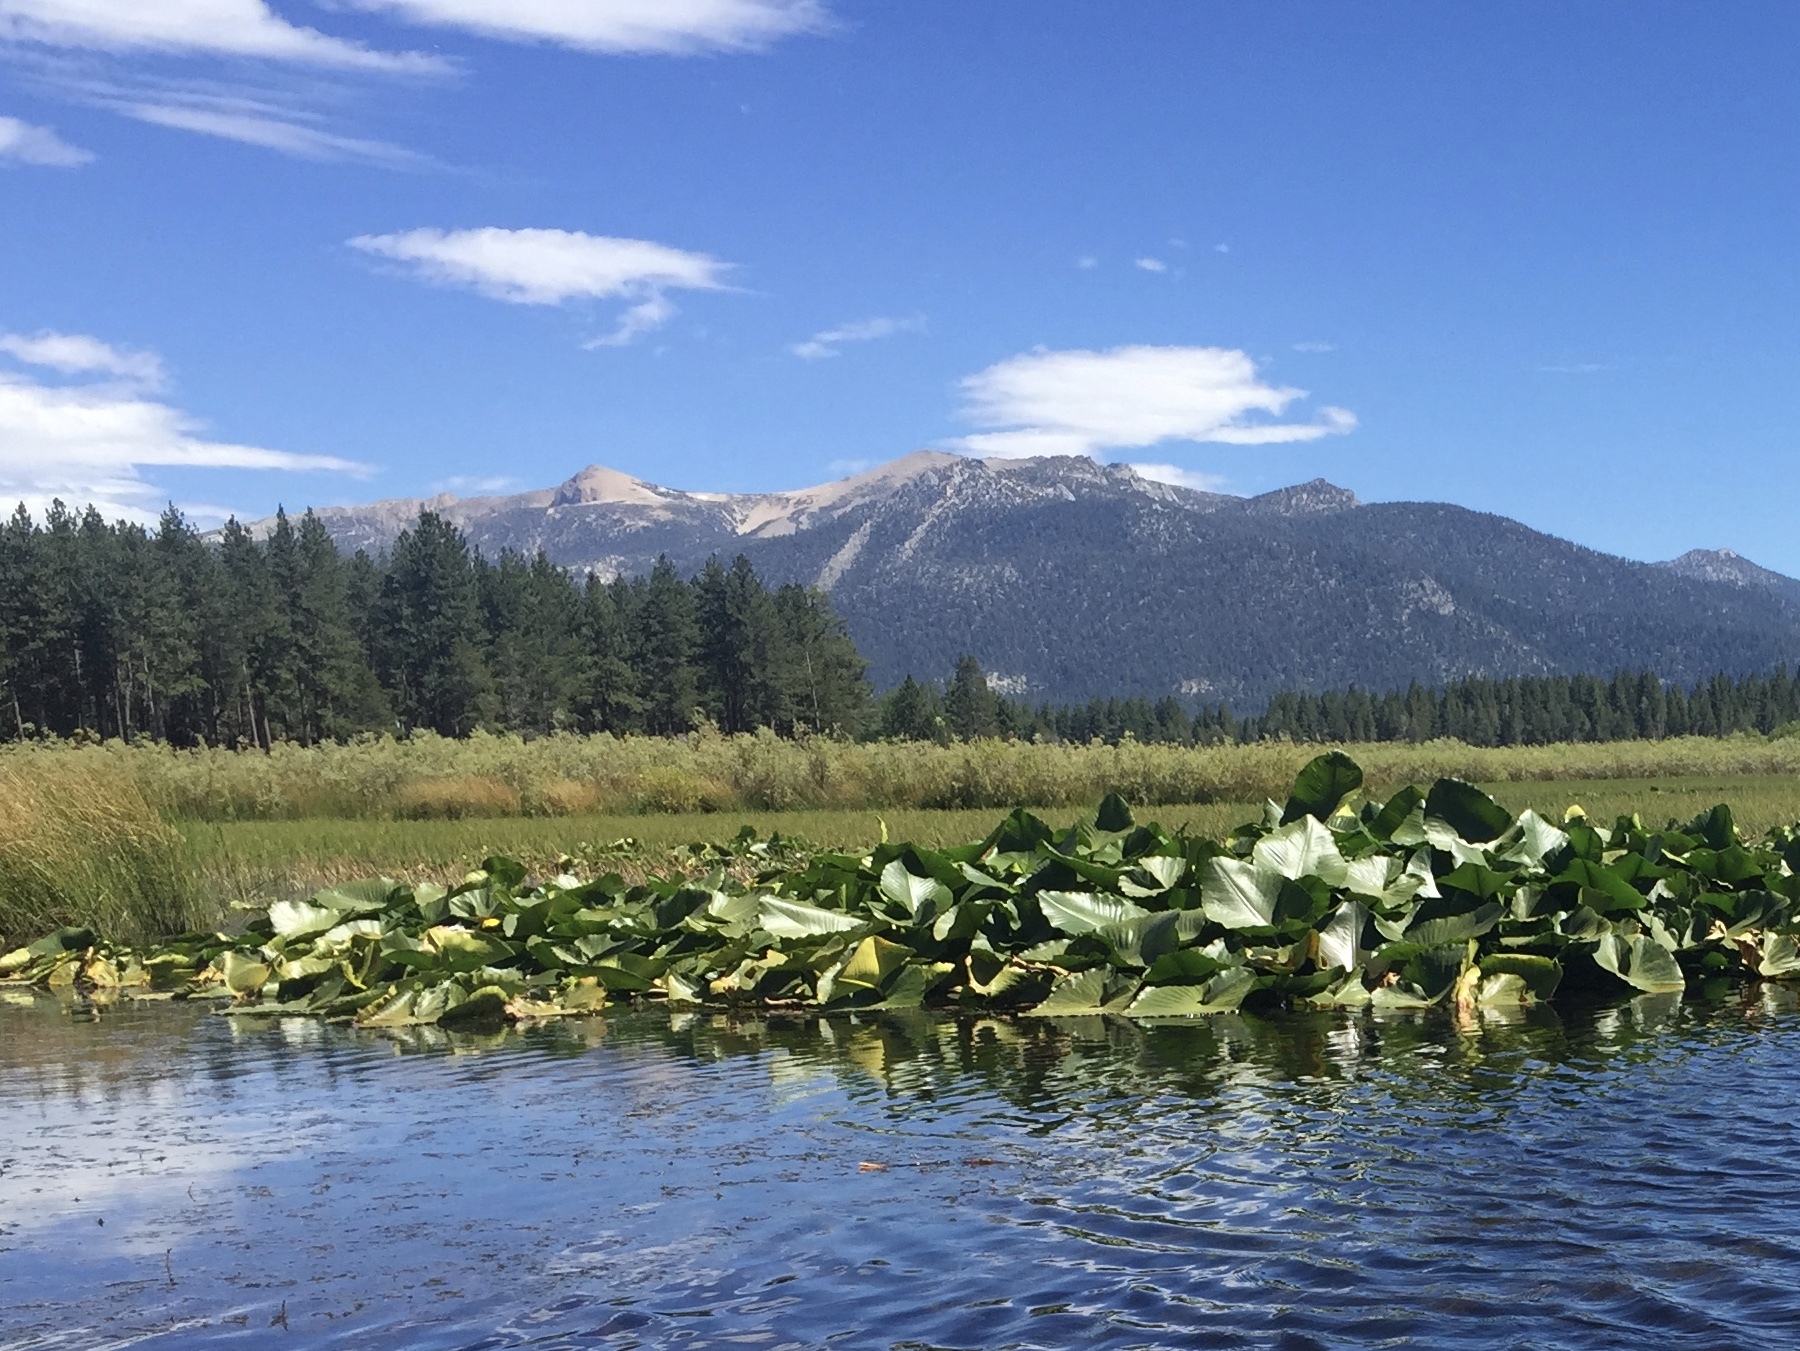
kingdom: Plantae
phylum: Tracheophyta
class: Magnoliopsida
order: Nymphaeales
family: Nymphaeaceae
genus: Nuphar
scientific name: Nuphar polysepala
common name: Rocky mountain cow-lily
